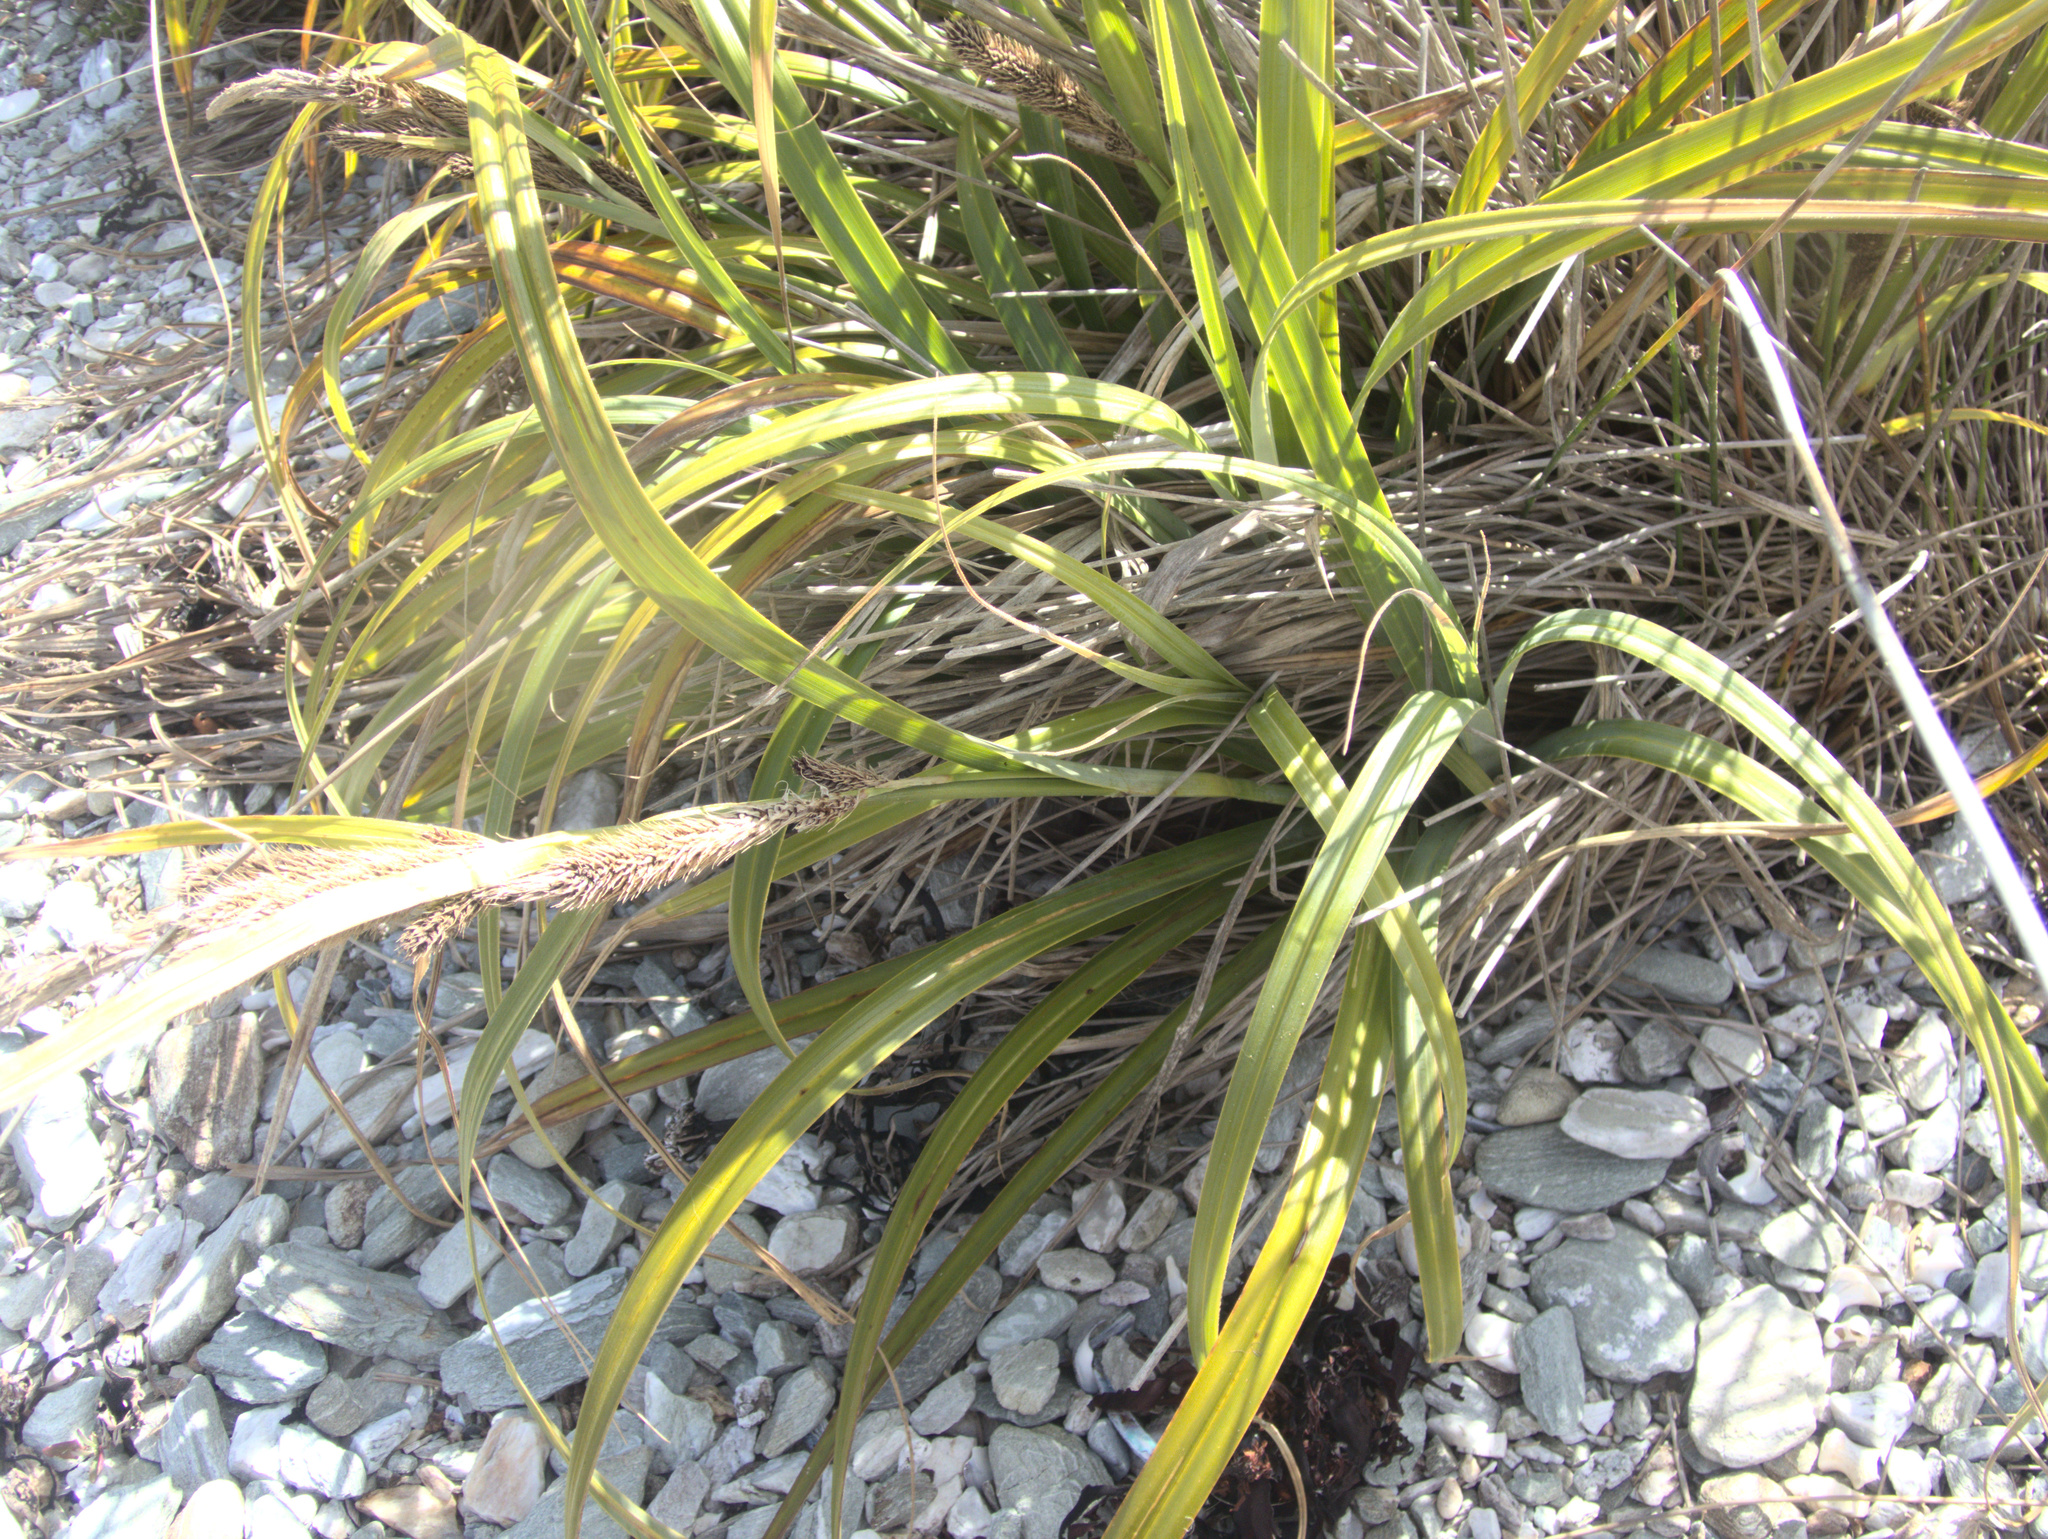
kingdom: Plantae
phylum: Tracheophyta
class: Liliopsida
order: Poales
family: Cyperaceae
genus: Carex
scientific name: Carex trifida
